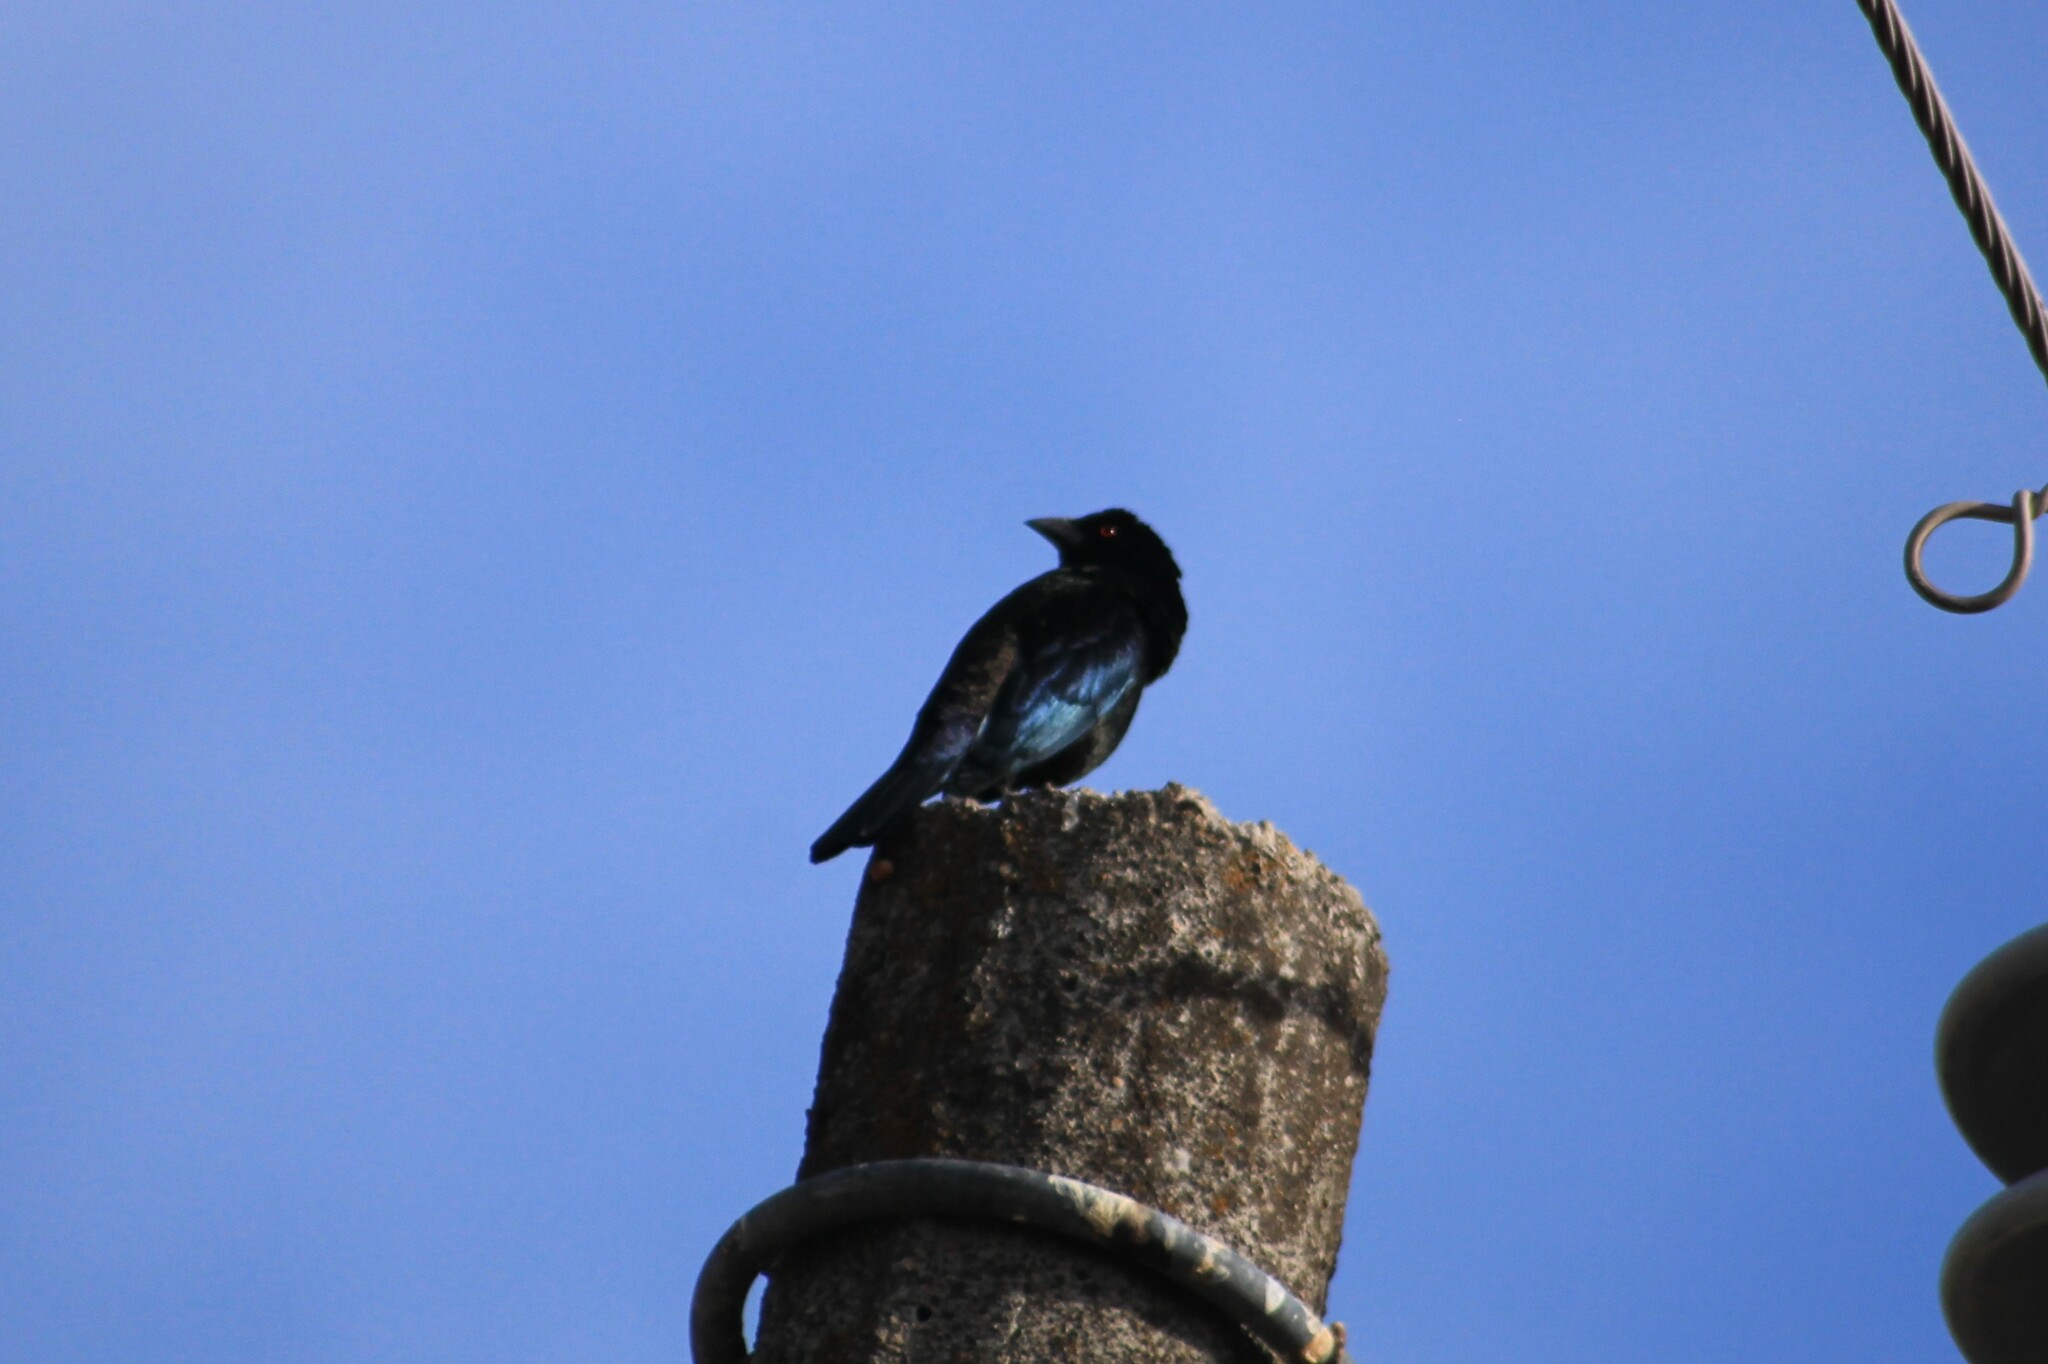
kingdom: Animalia
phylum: Chordata
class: Aves
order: Passeriformes
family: Icteridae
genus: Molothrus
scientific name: Molothrus aeneus
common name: Bronzed cowbird
